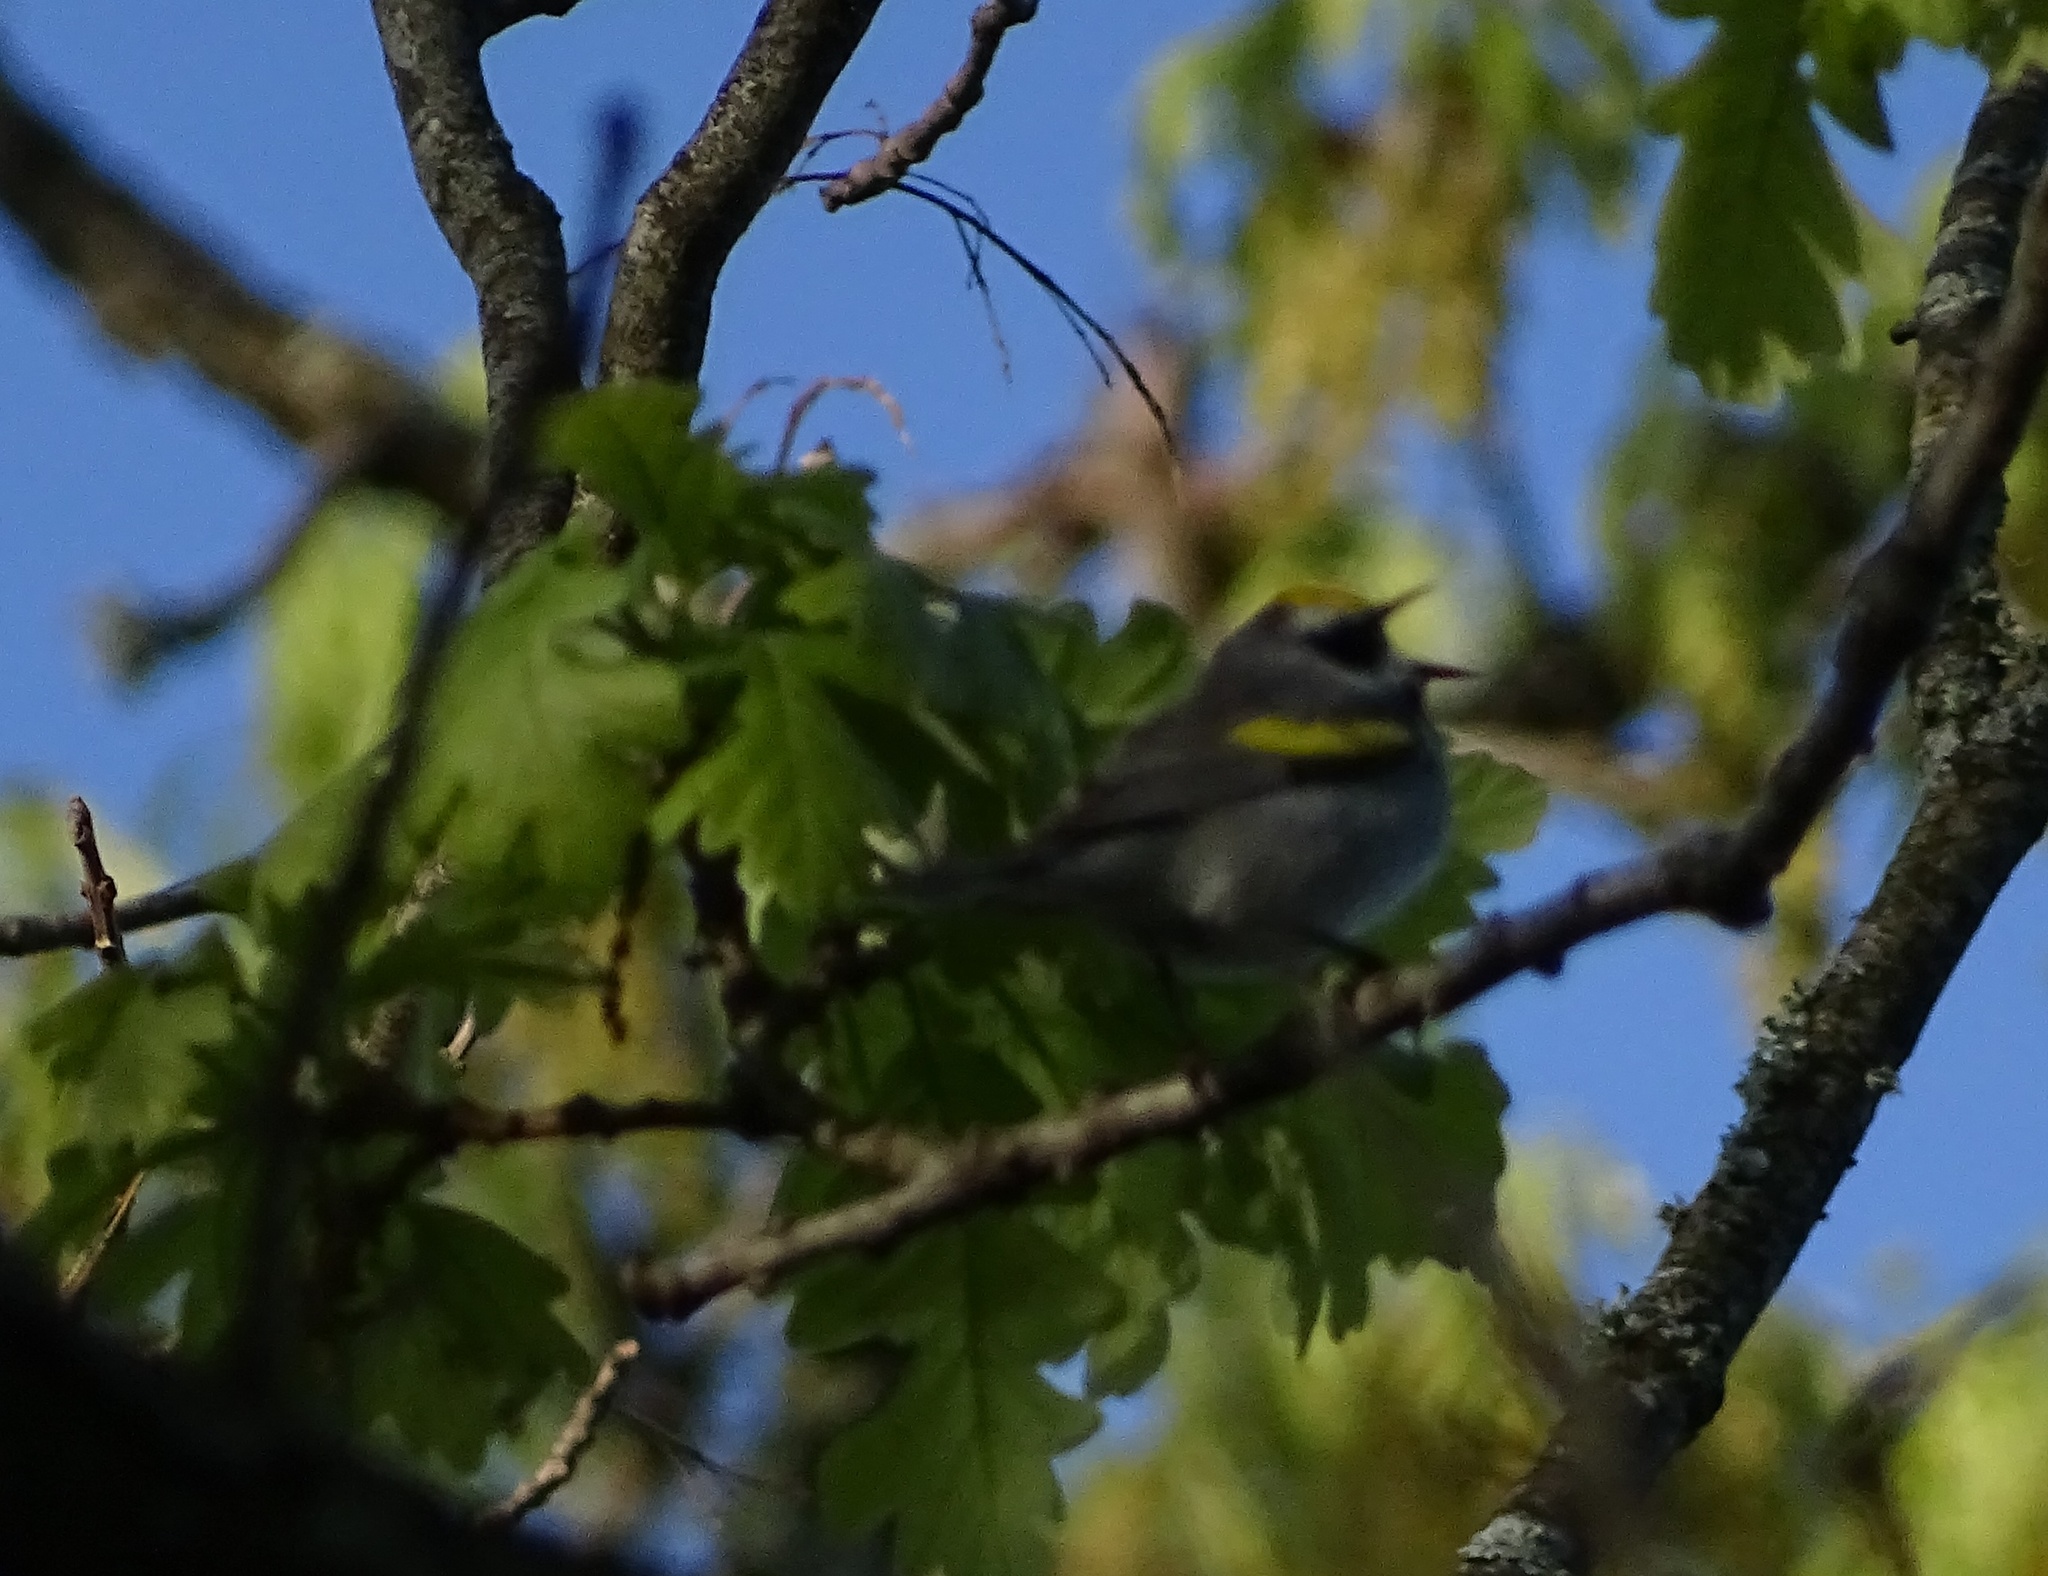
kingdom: Animalia
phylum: Chordata
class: Aves
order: Passeriformes
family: Parulidae
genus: Vermivora
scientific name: Vermivora chrysoptera
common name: Golden-winged warbler
